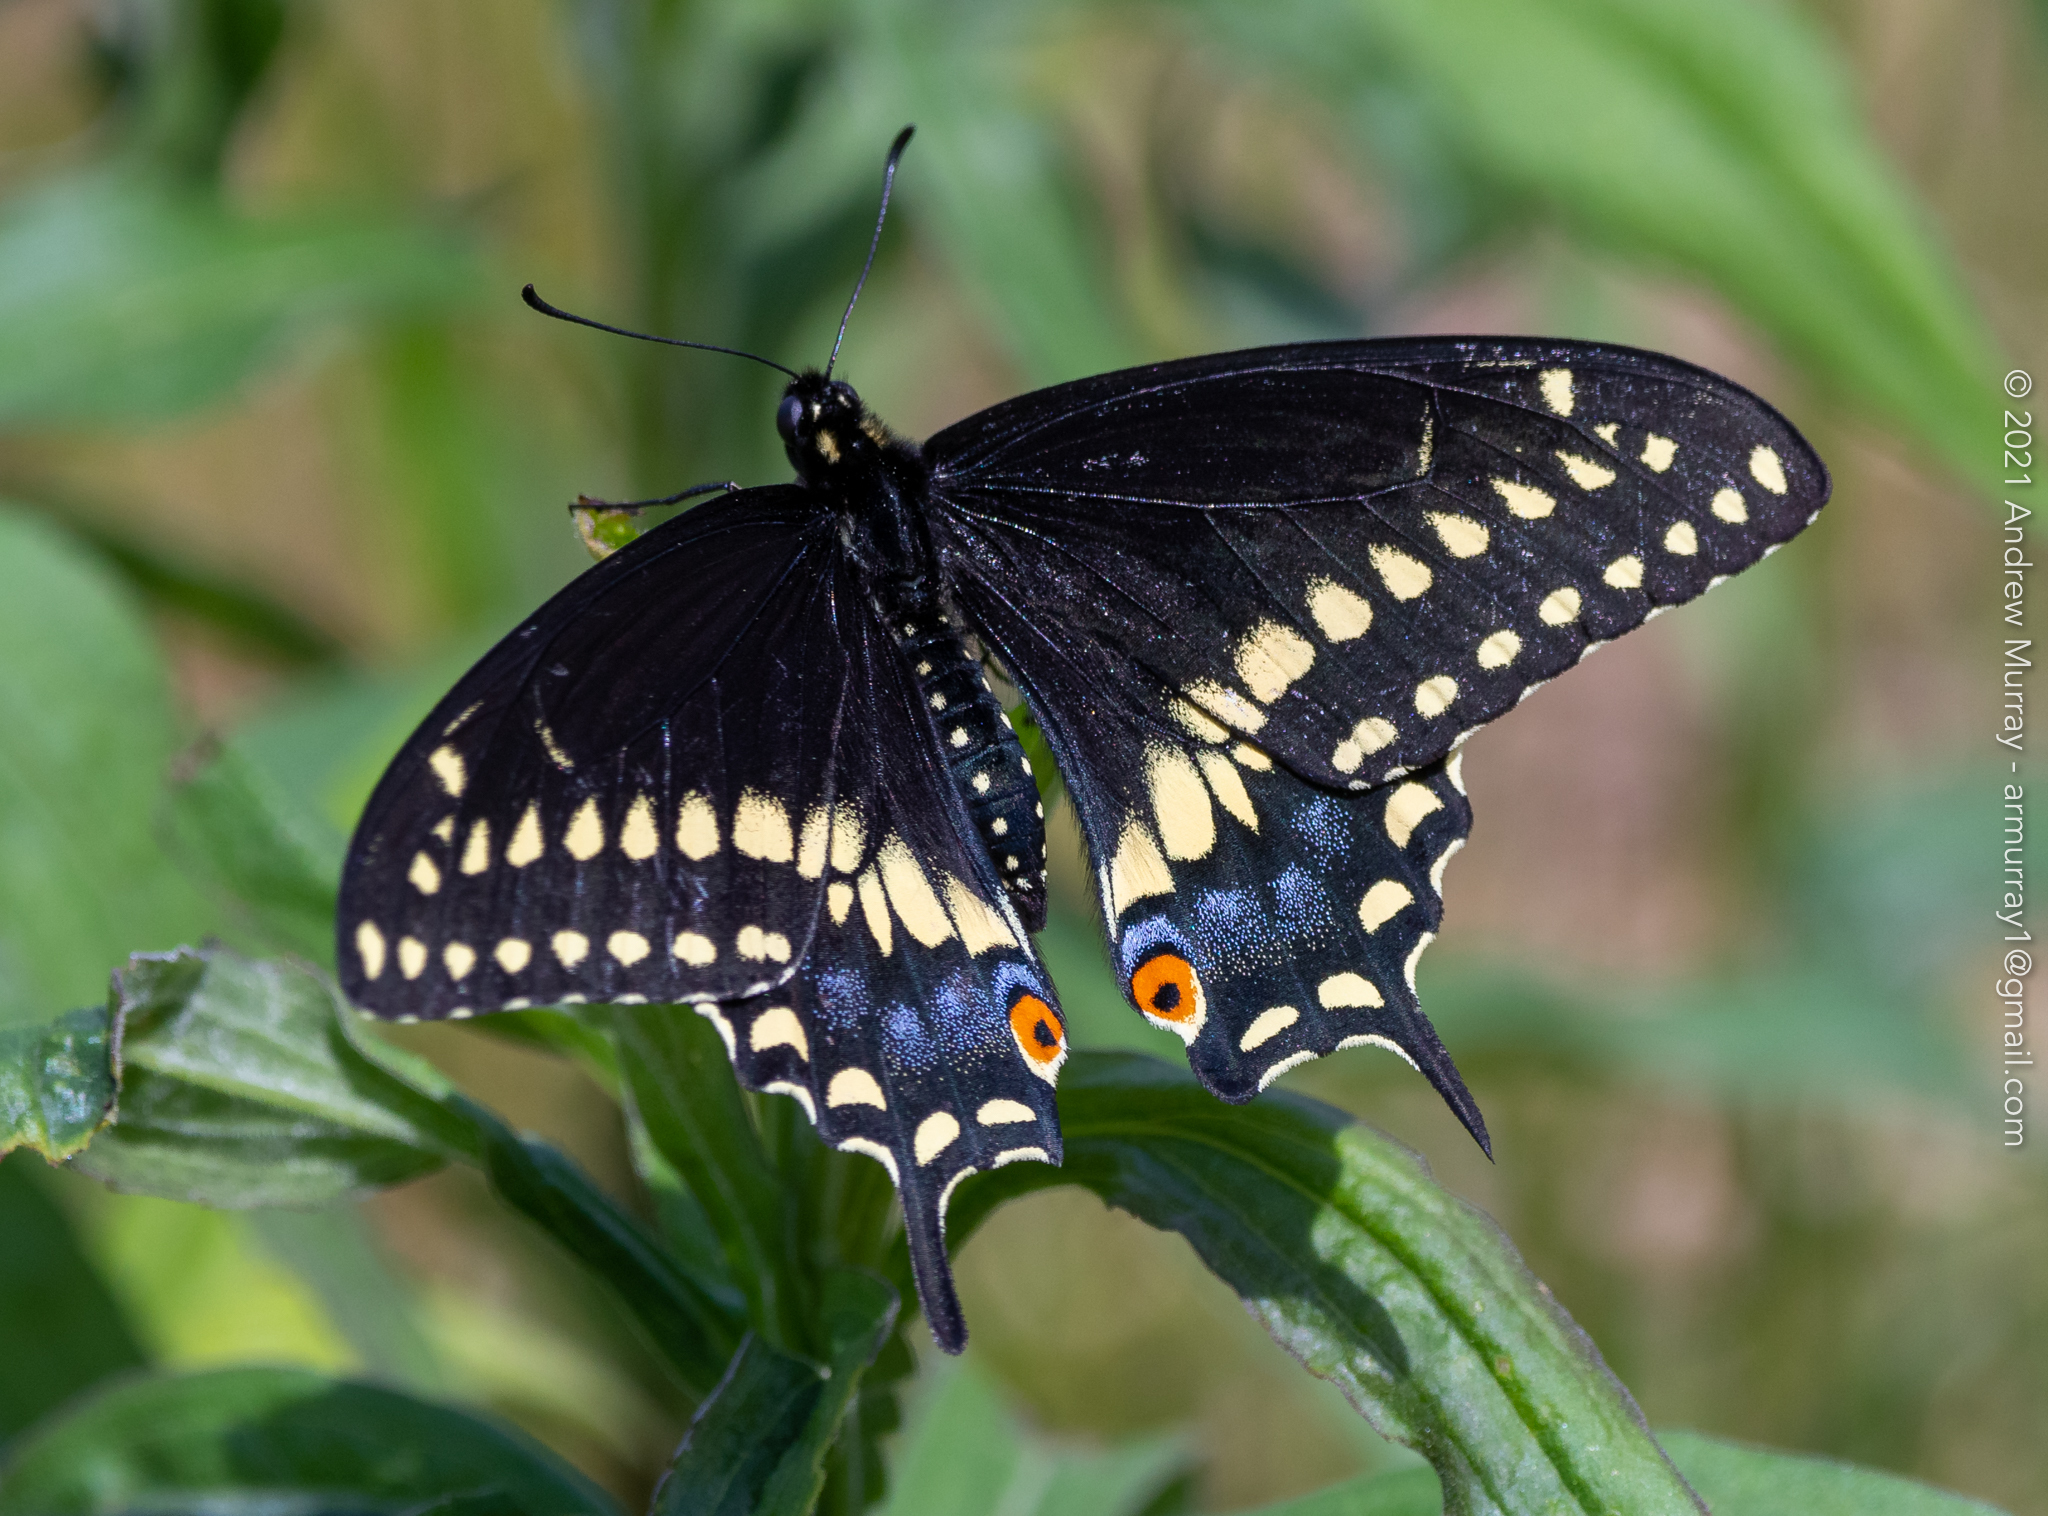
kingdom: Animalia
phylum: Arthropoda
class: Insecta
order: Lepidoptera
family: Papilionidae
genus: Papilio
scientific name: Papilio polyxenes
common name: Black swallowtail
